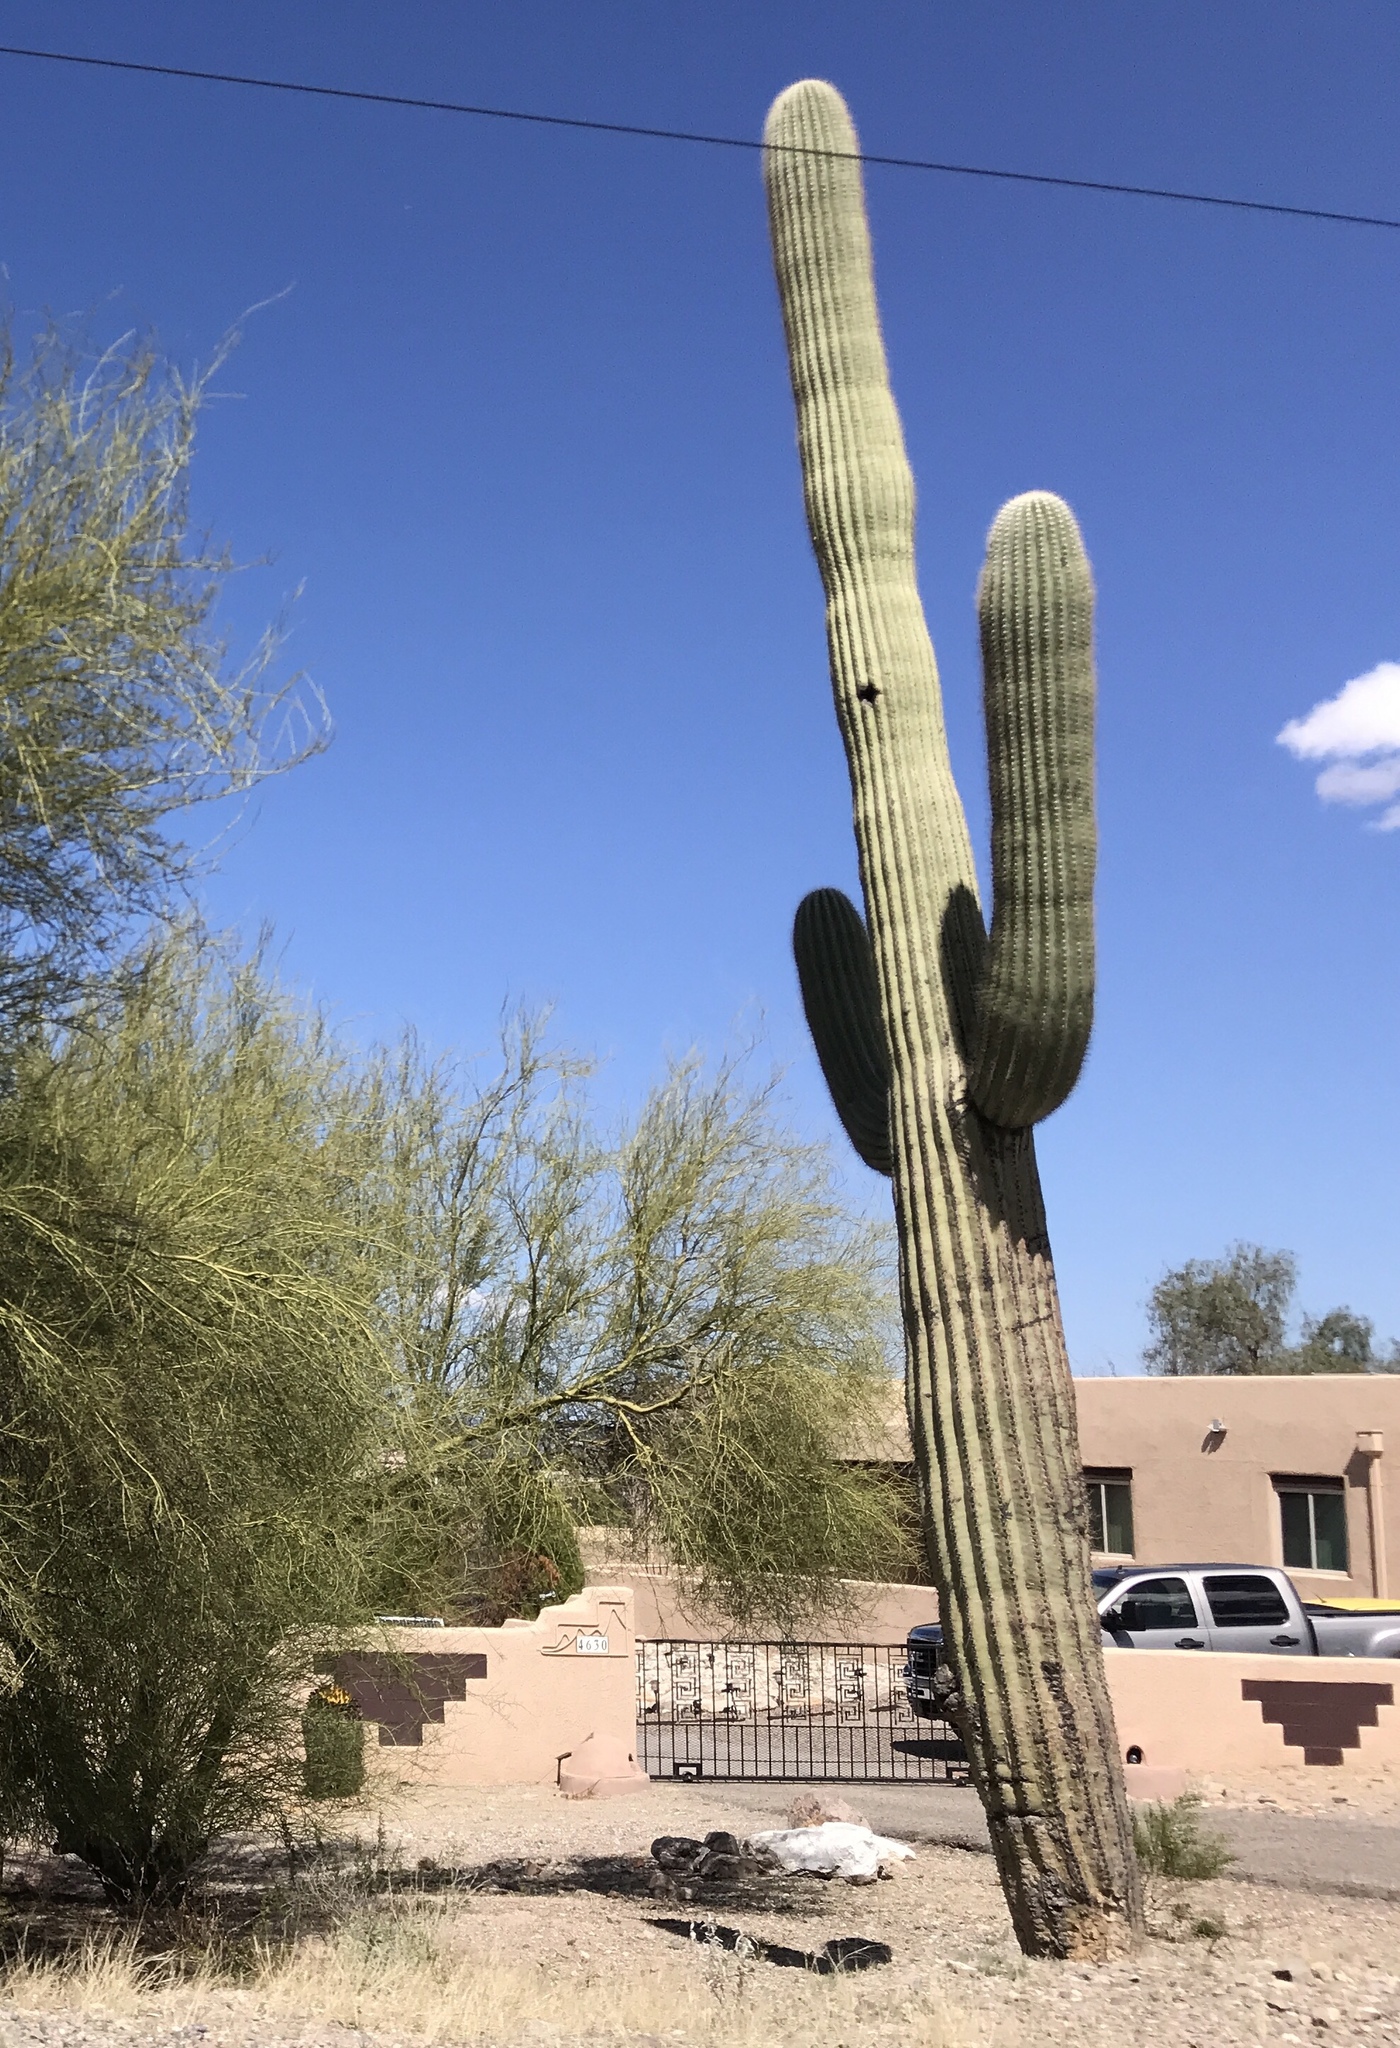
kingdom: Plantae
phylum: Tracheophyta
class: Magnoliopsida
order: Caryophyllales
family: Cactaceae
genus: Carnegiea
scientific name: Carnegiea gigantea
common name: Saguaro
